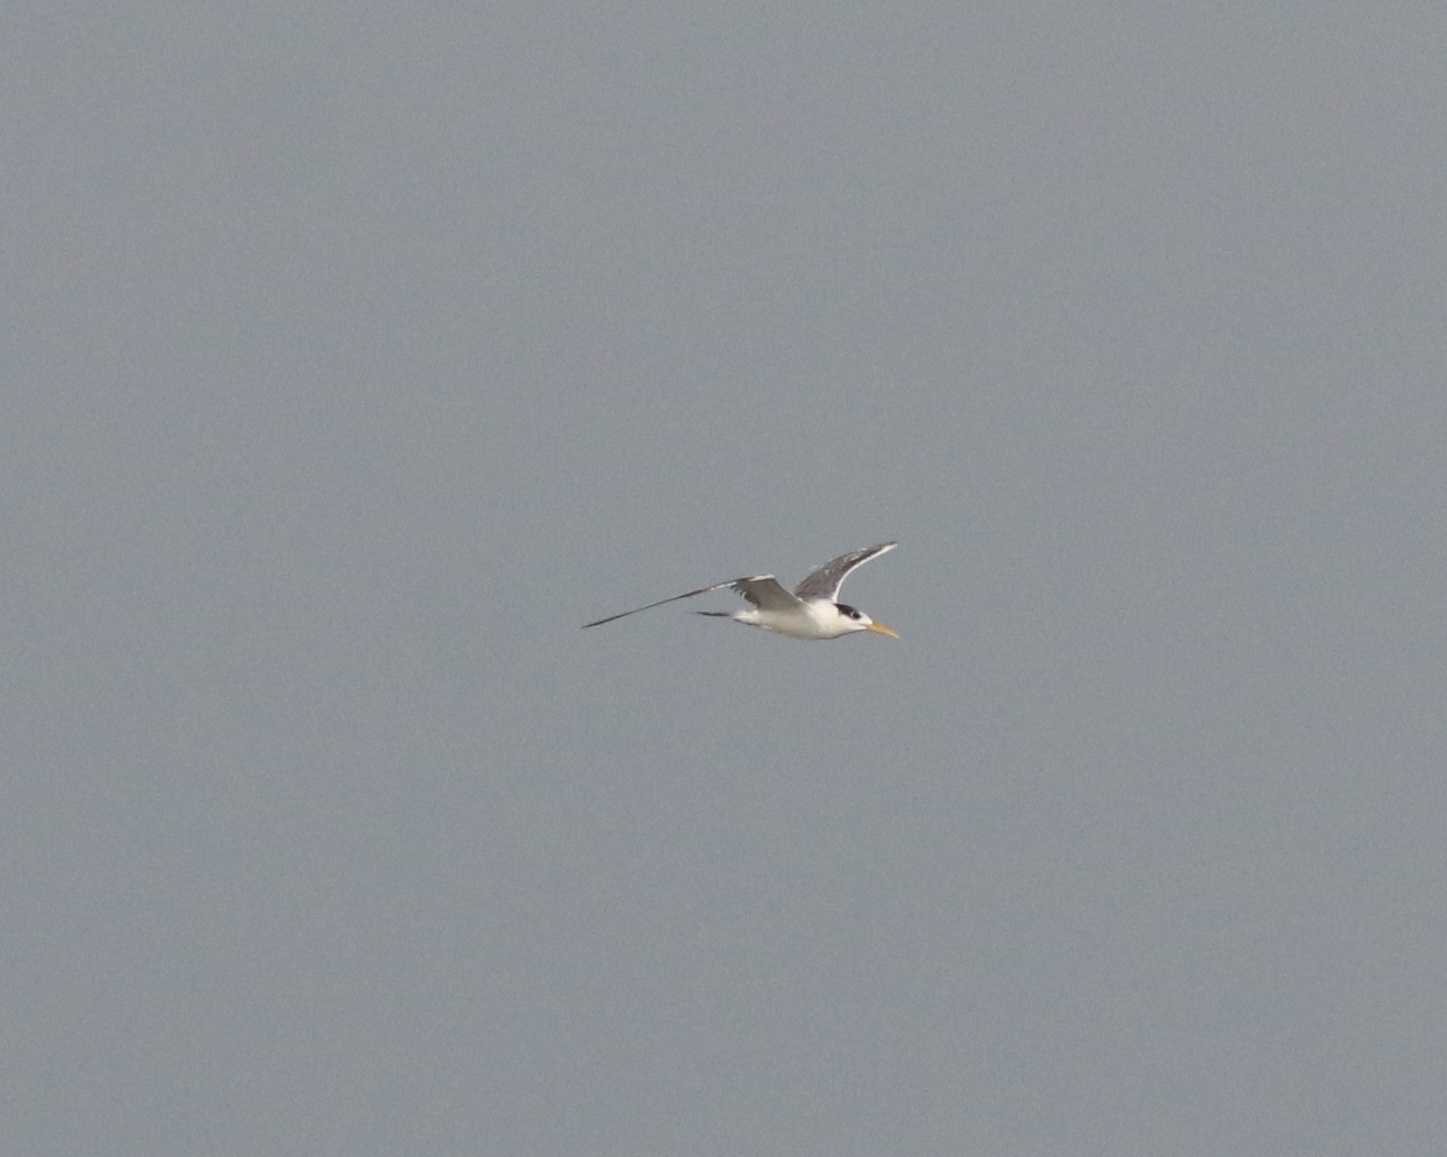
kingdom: Animalia
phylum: Chordata
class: Aves
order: Charadriiformes
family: Laridae
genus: Thalasseus
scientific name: Thalasseus bergii
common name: Greater crested tern
